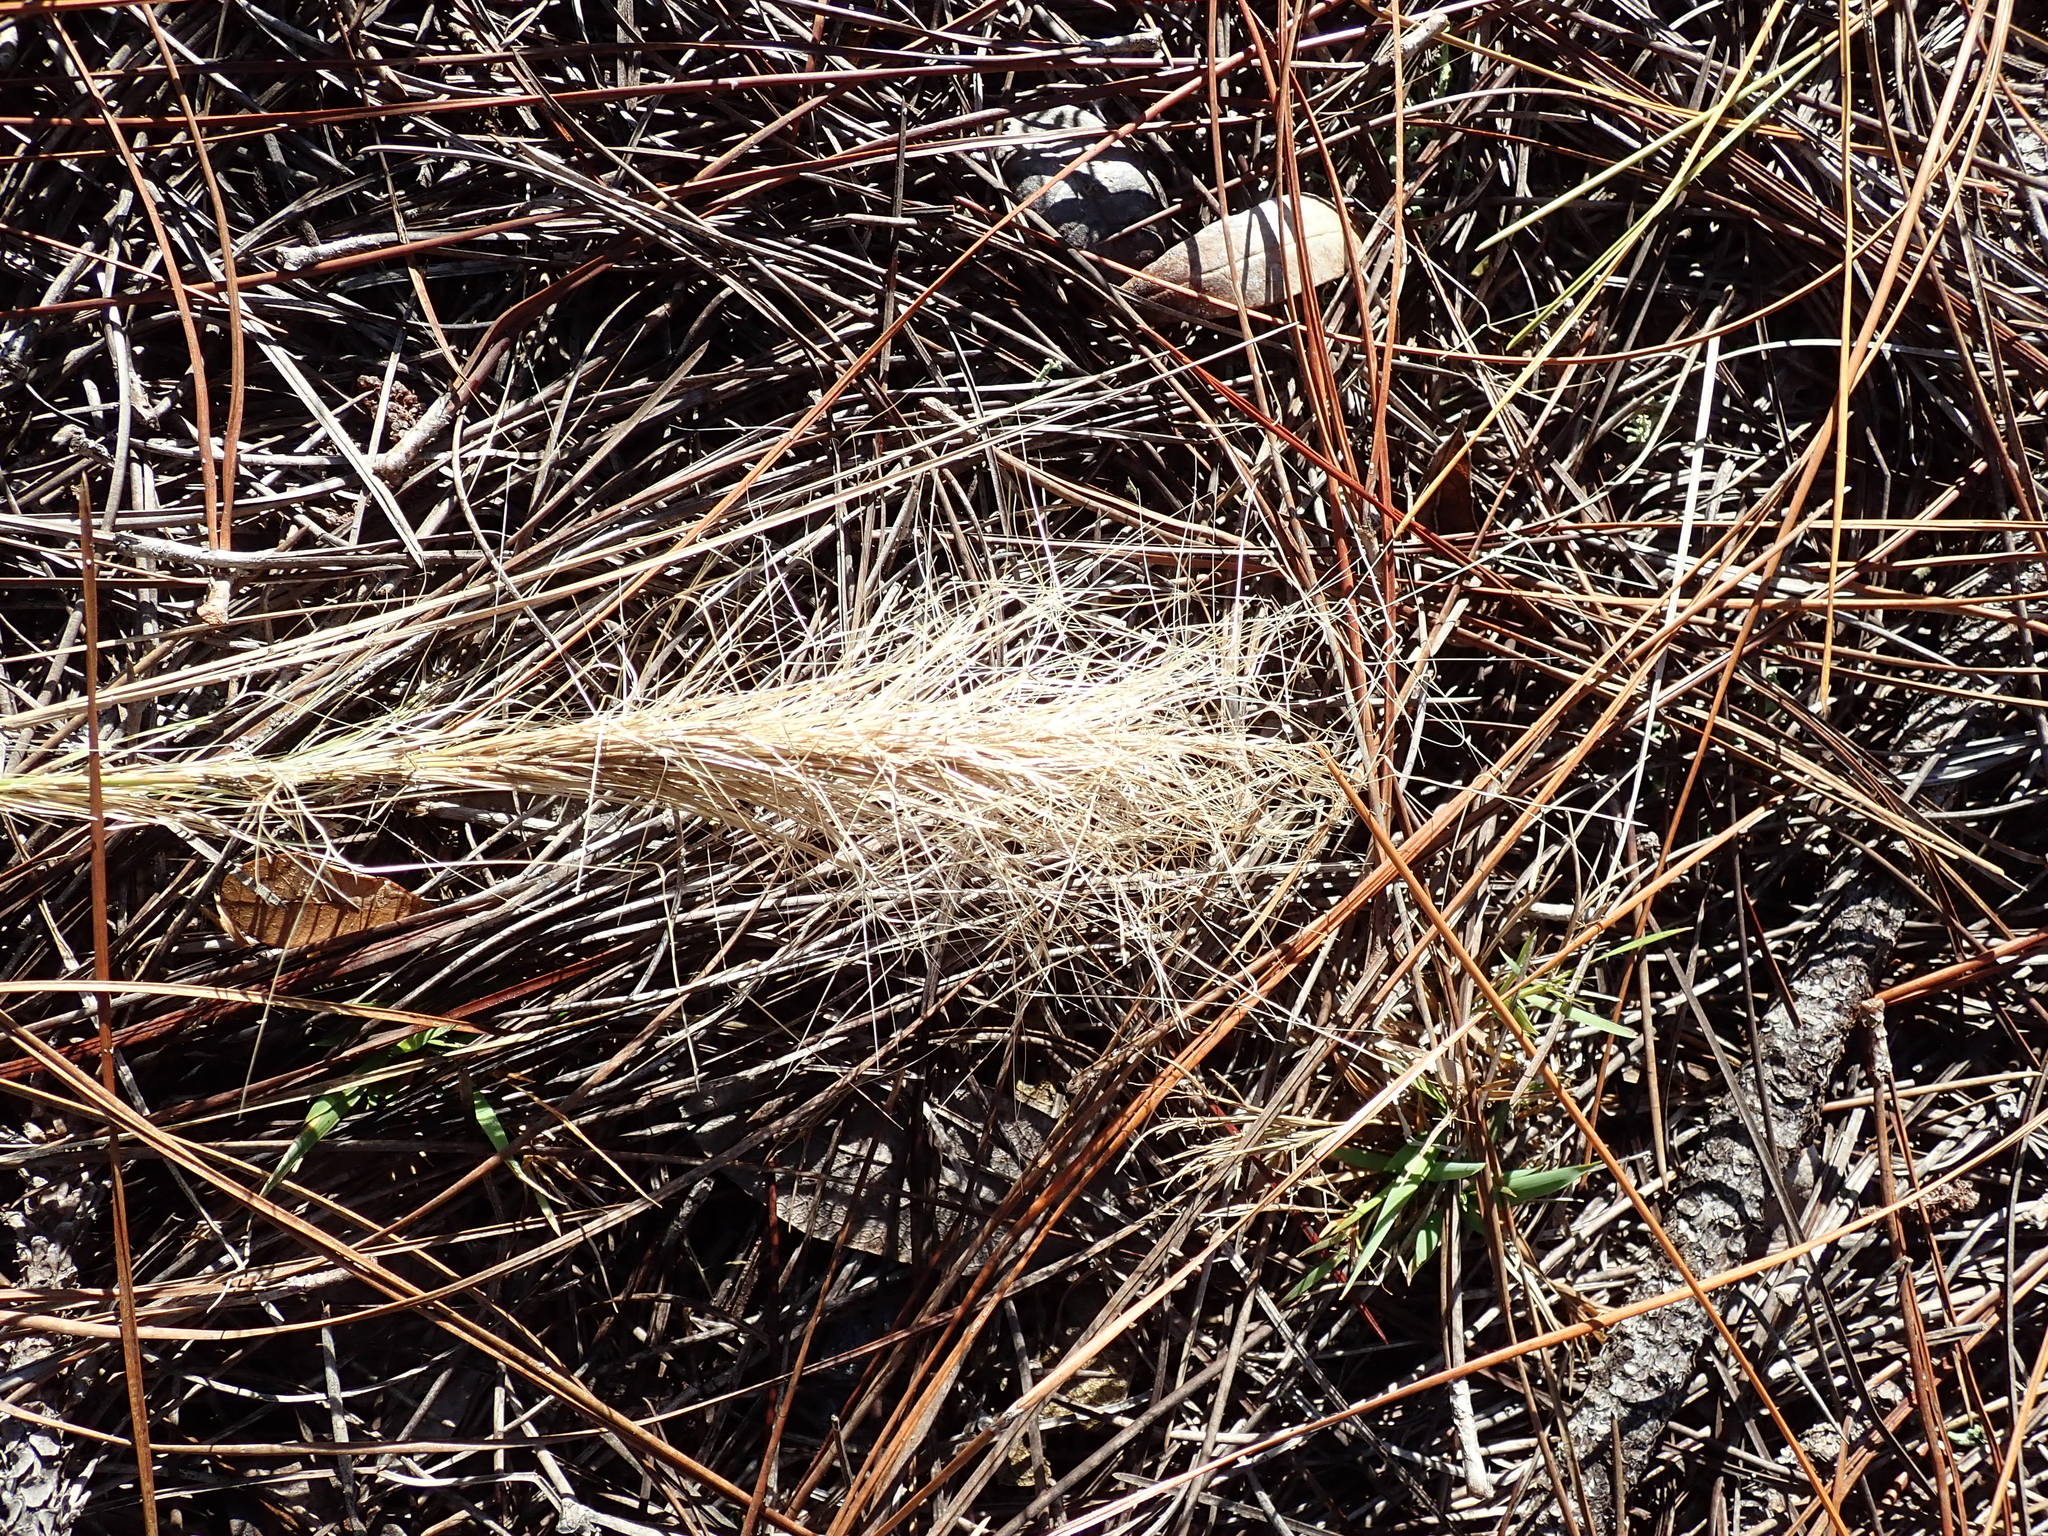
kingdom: Plantae
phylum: Tracheophyta
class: Liliopsida
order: Poales
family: Poaceae
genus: Aristida
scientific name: Aristida spiciformis
